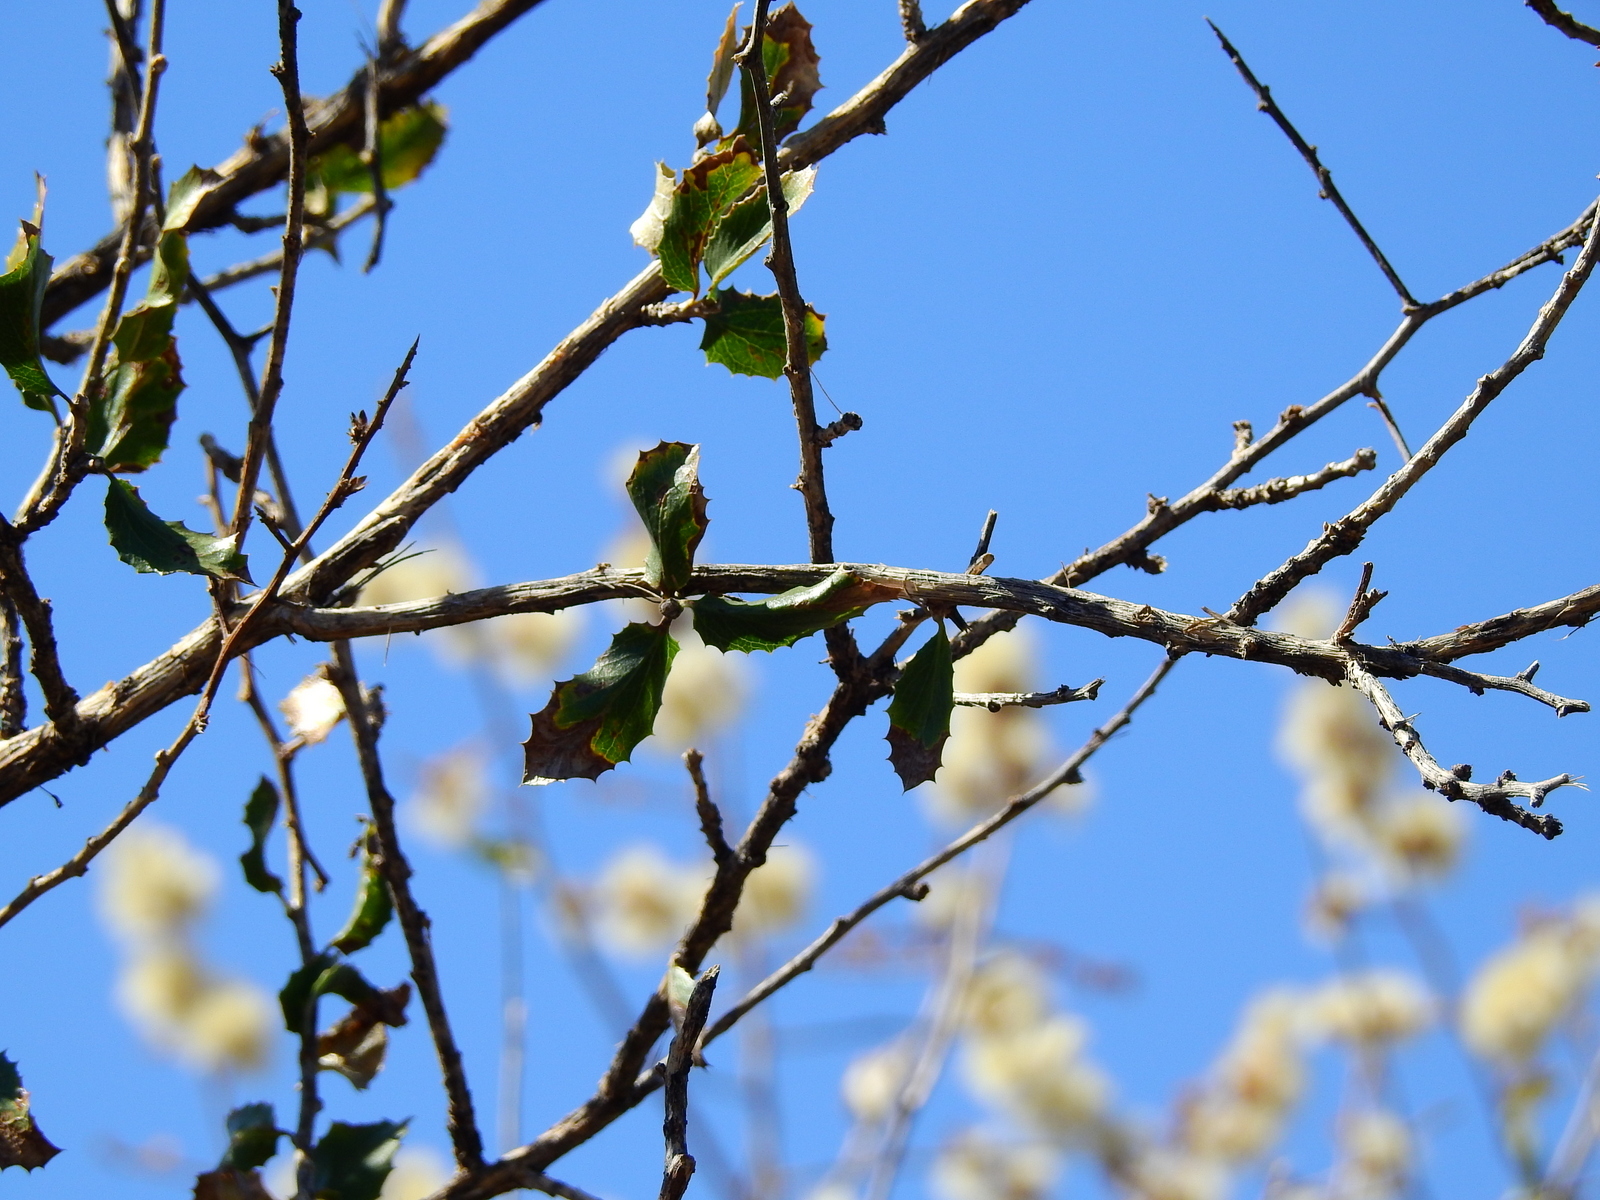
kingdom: Plantae
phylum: Tracheophyta
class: Magnoliopsida
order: Asterales
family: Asteraceae
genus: Proustia
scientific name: Proustia cuneifolia
